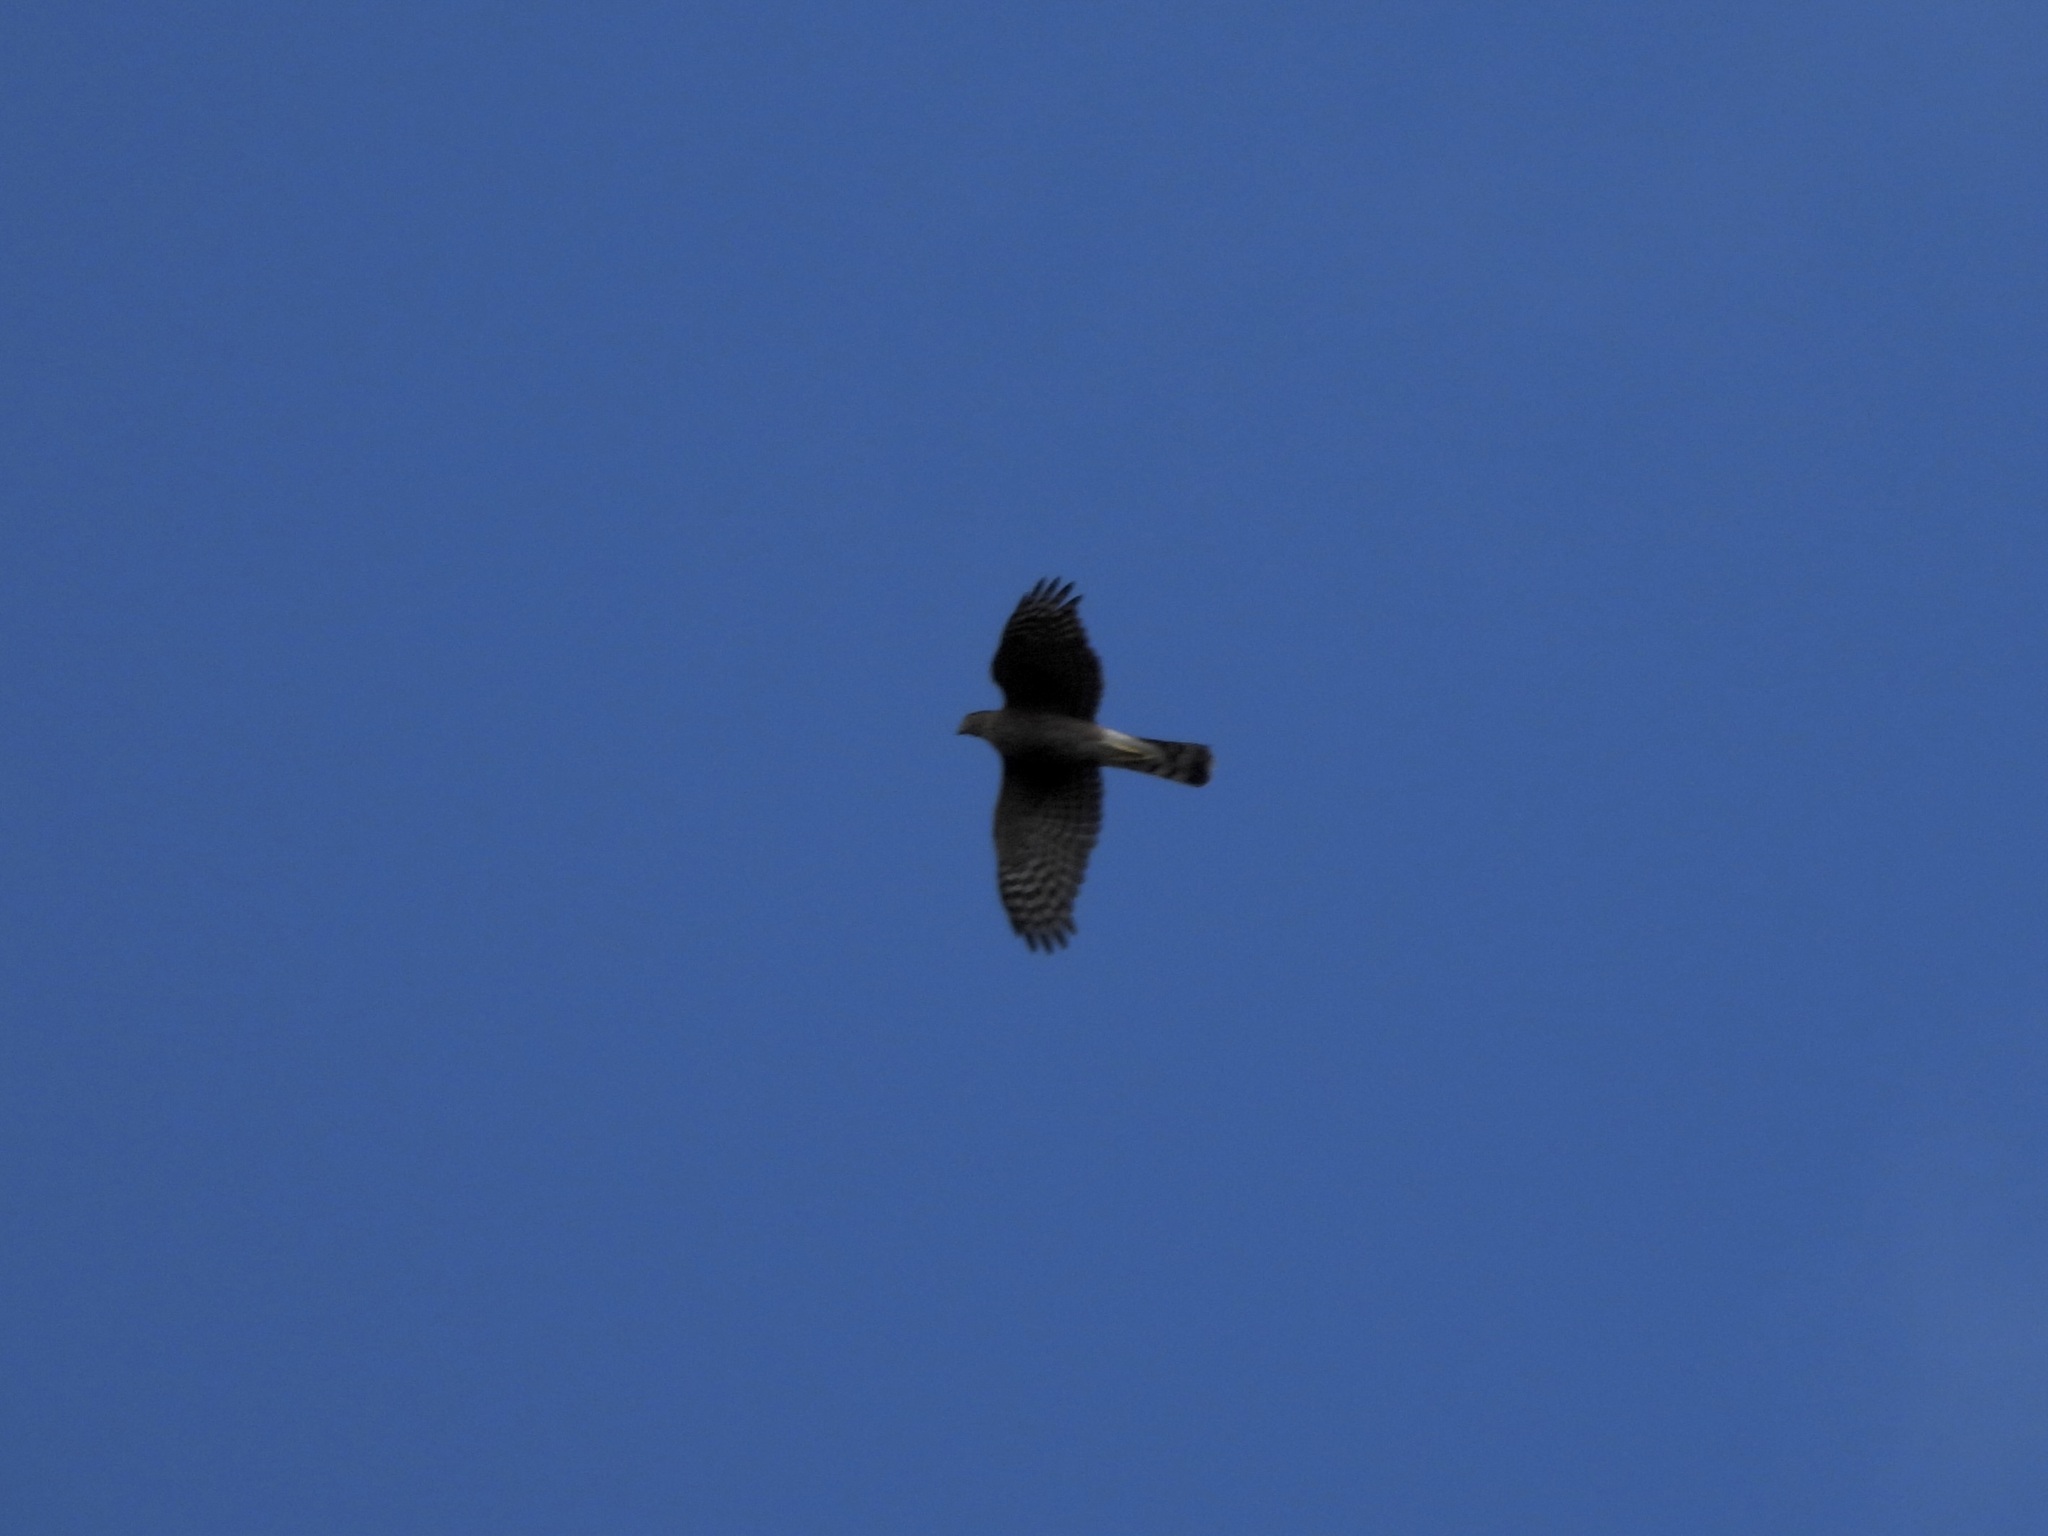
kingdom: Animalia
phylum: Chordata
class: Aves
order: Accipitriformes
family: Accipitridae
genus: Accipiter
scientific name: Accipiter striatus
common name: Sharp-shinned hawk
